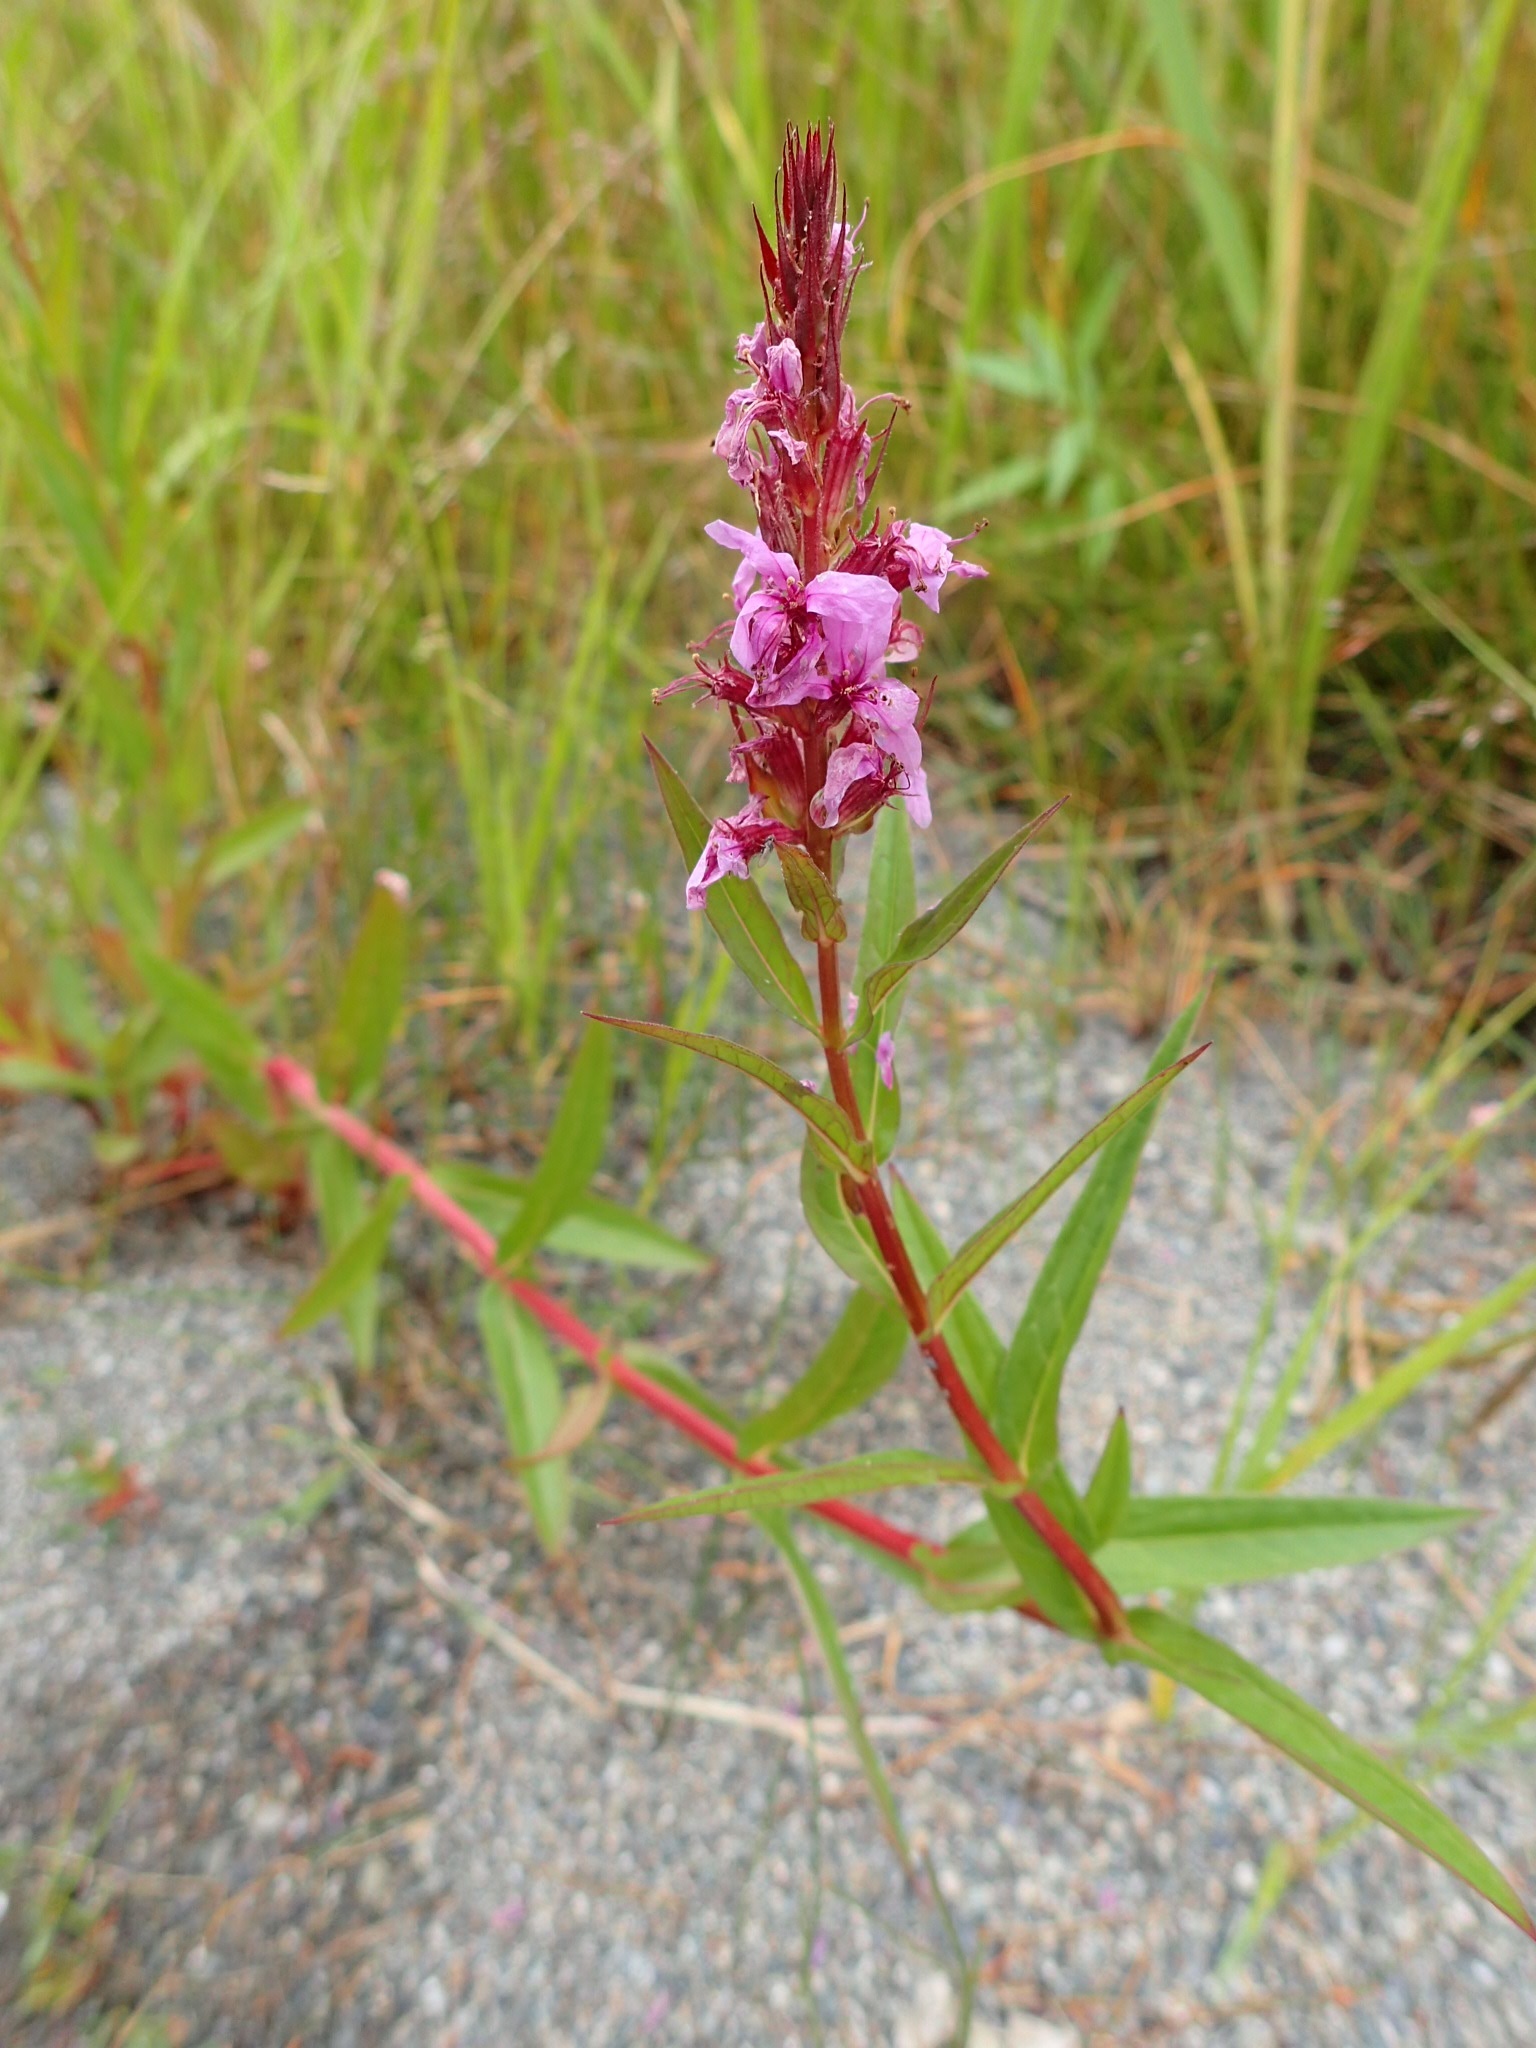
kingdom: Plantae
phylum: Tracheophyta
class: Magnoliopsida
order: Myrtales
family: Lythraceae
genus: Lythrum
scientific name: Lythrum salicaria
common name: Purple loosestrife
